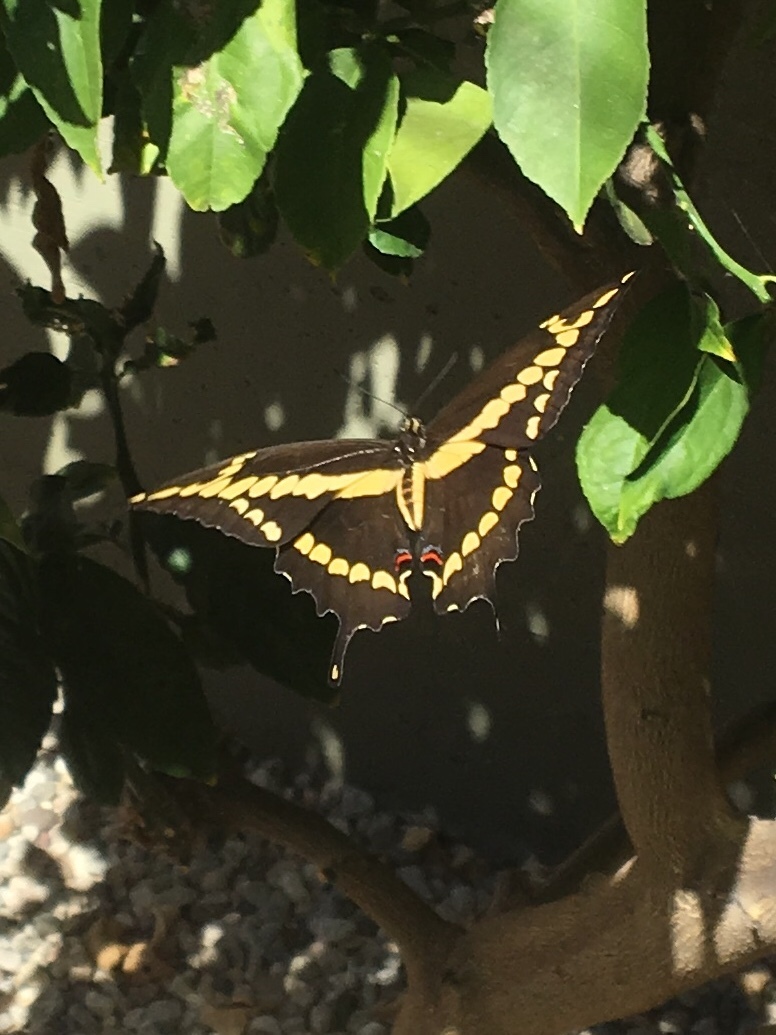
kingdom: Animalia
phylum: Arthropoda
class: Insecta
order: Lepidoptera
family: Papilionidae
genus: Papilio
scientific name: Papilio rumiko
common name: Western giant swallowtail
